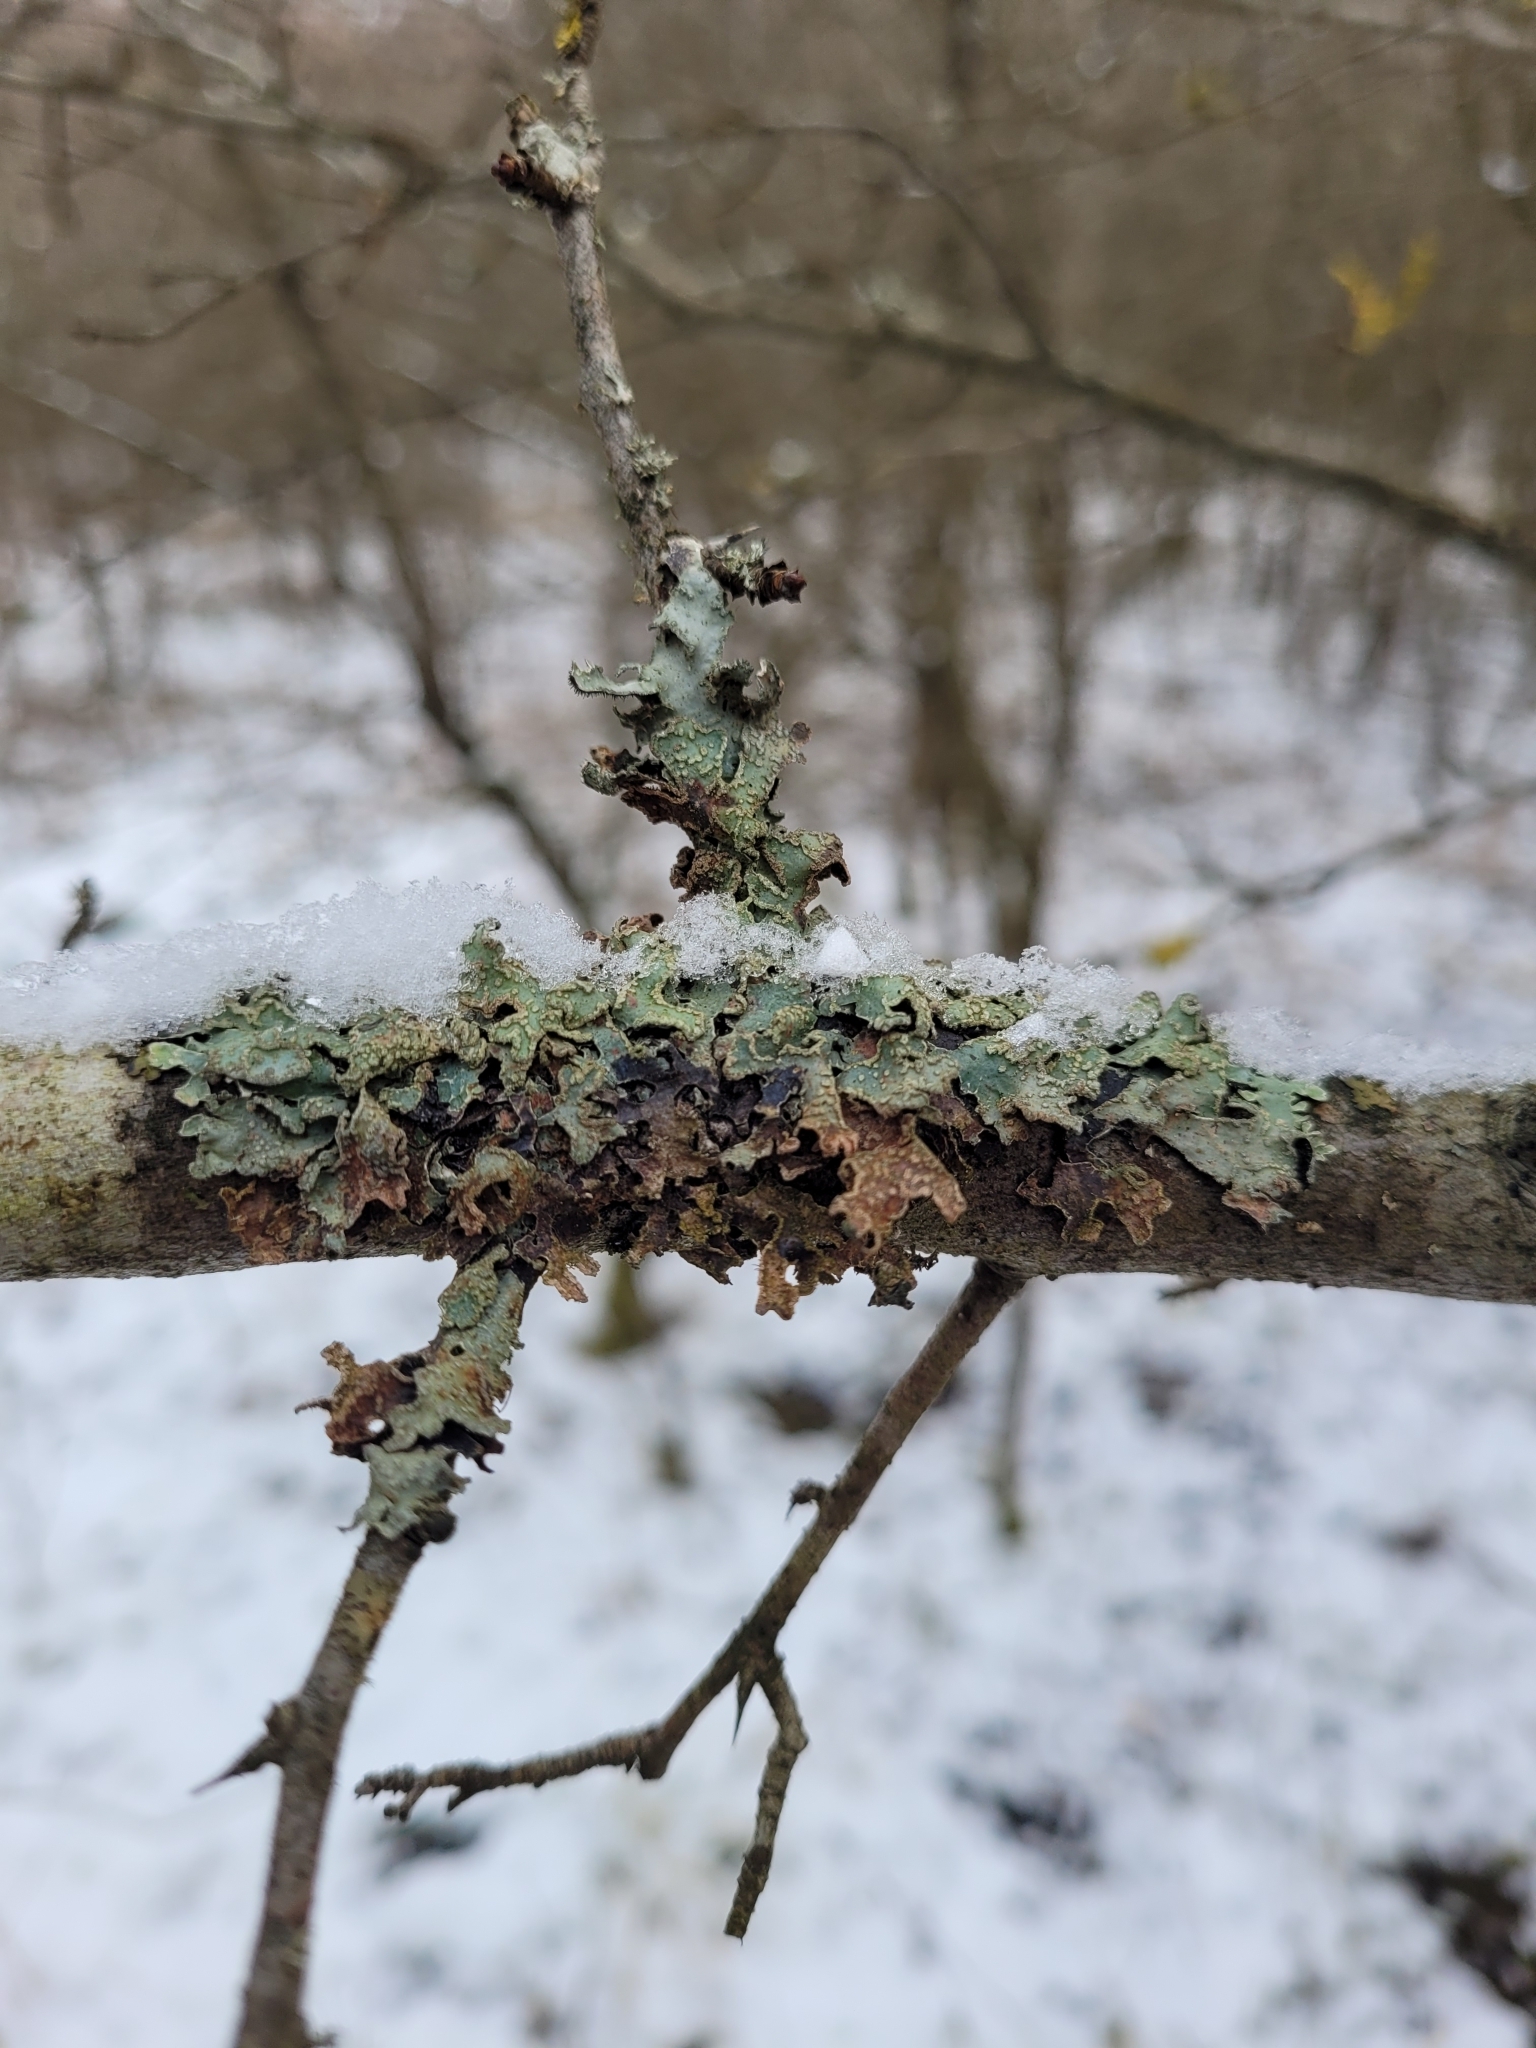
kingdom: Fungi
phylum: Ascomycota
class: Lecanoromycetes
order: Lecanorales
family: Parmeliaceae
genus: Parmelia
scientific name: Parmelia sulcata
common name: Netted shield lichen
